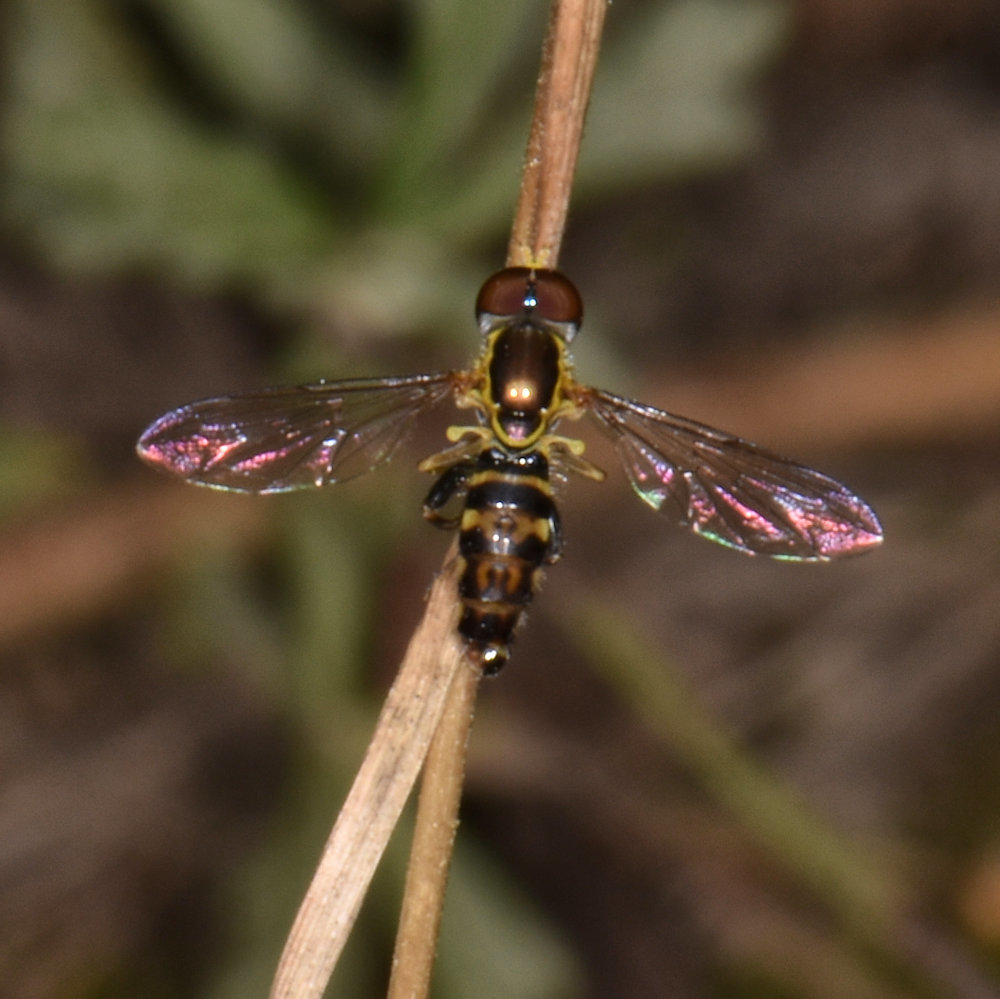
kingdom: Animalia
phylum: Arthropoda
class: Insecta
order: Diptera
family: Syrphidae
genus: Toxomerus
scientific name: Toxomerus geminatus
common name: Eastern calligrapher
